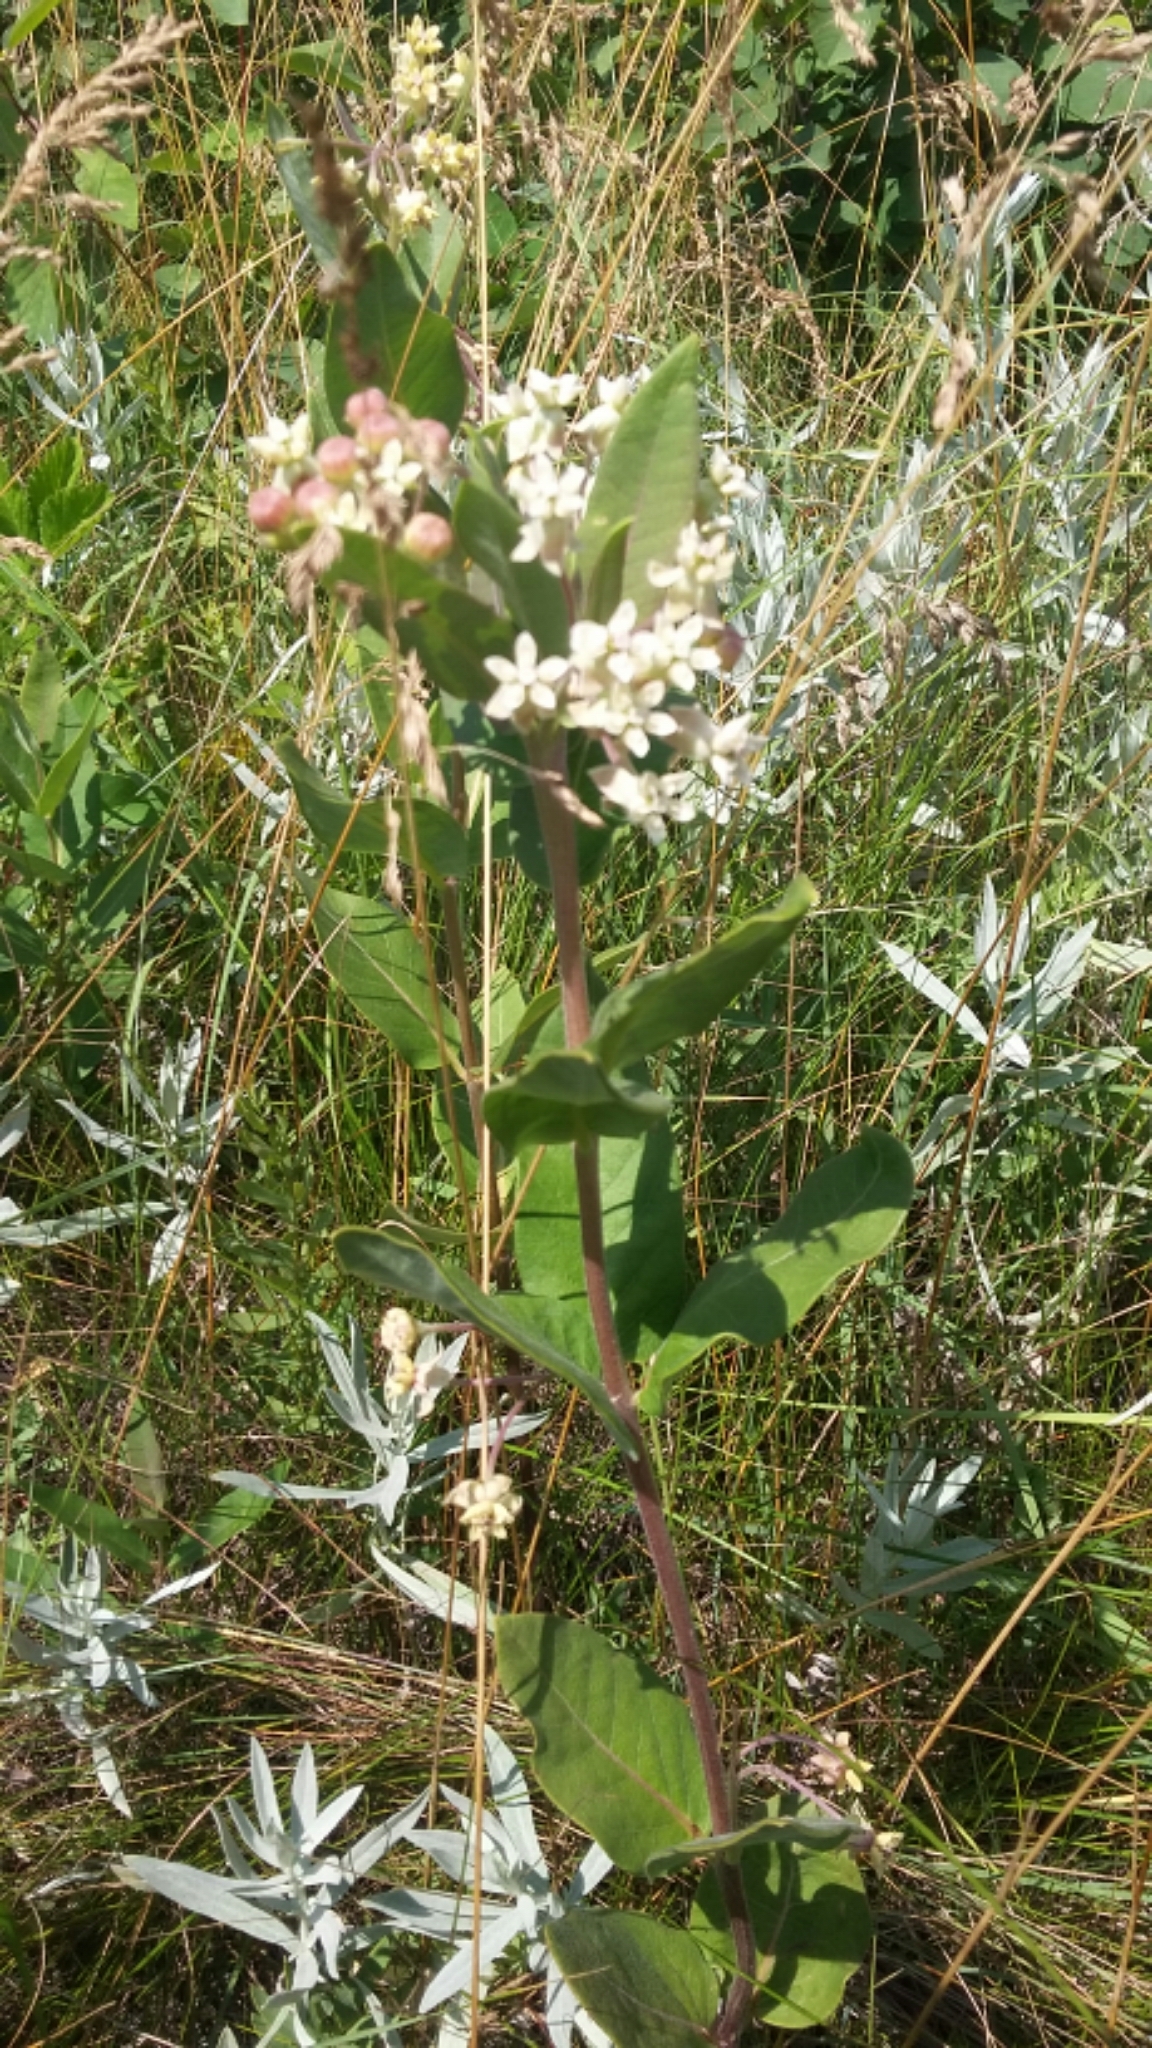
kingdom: Plantae
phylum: Tracheophyta
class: Magnoliopsida
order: Gentianales
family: Apocynaceae
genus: Asclepias
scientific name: Asclepias ovalifolia
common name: Dwarf milkweed
